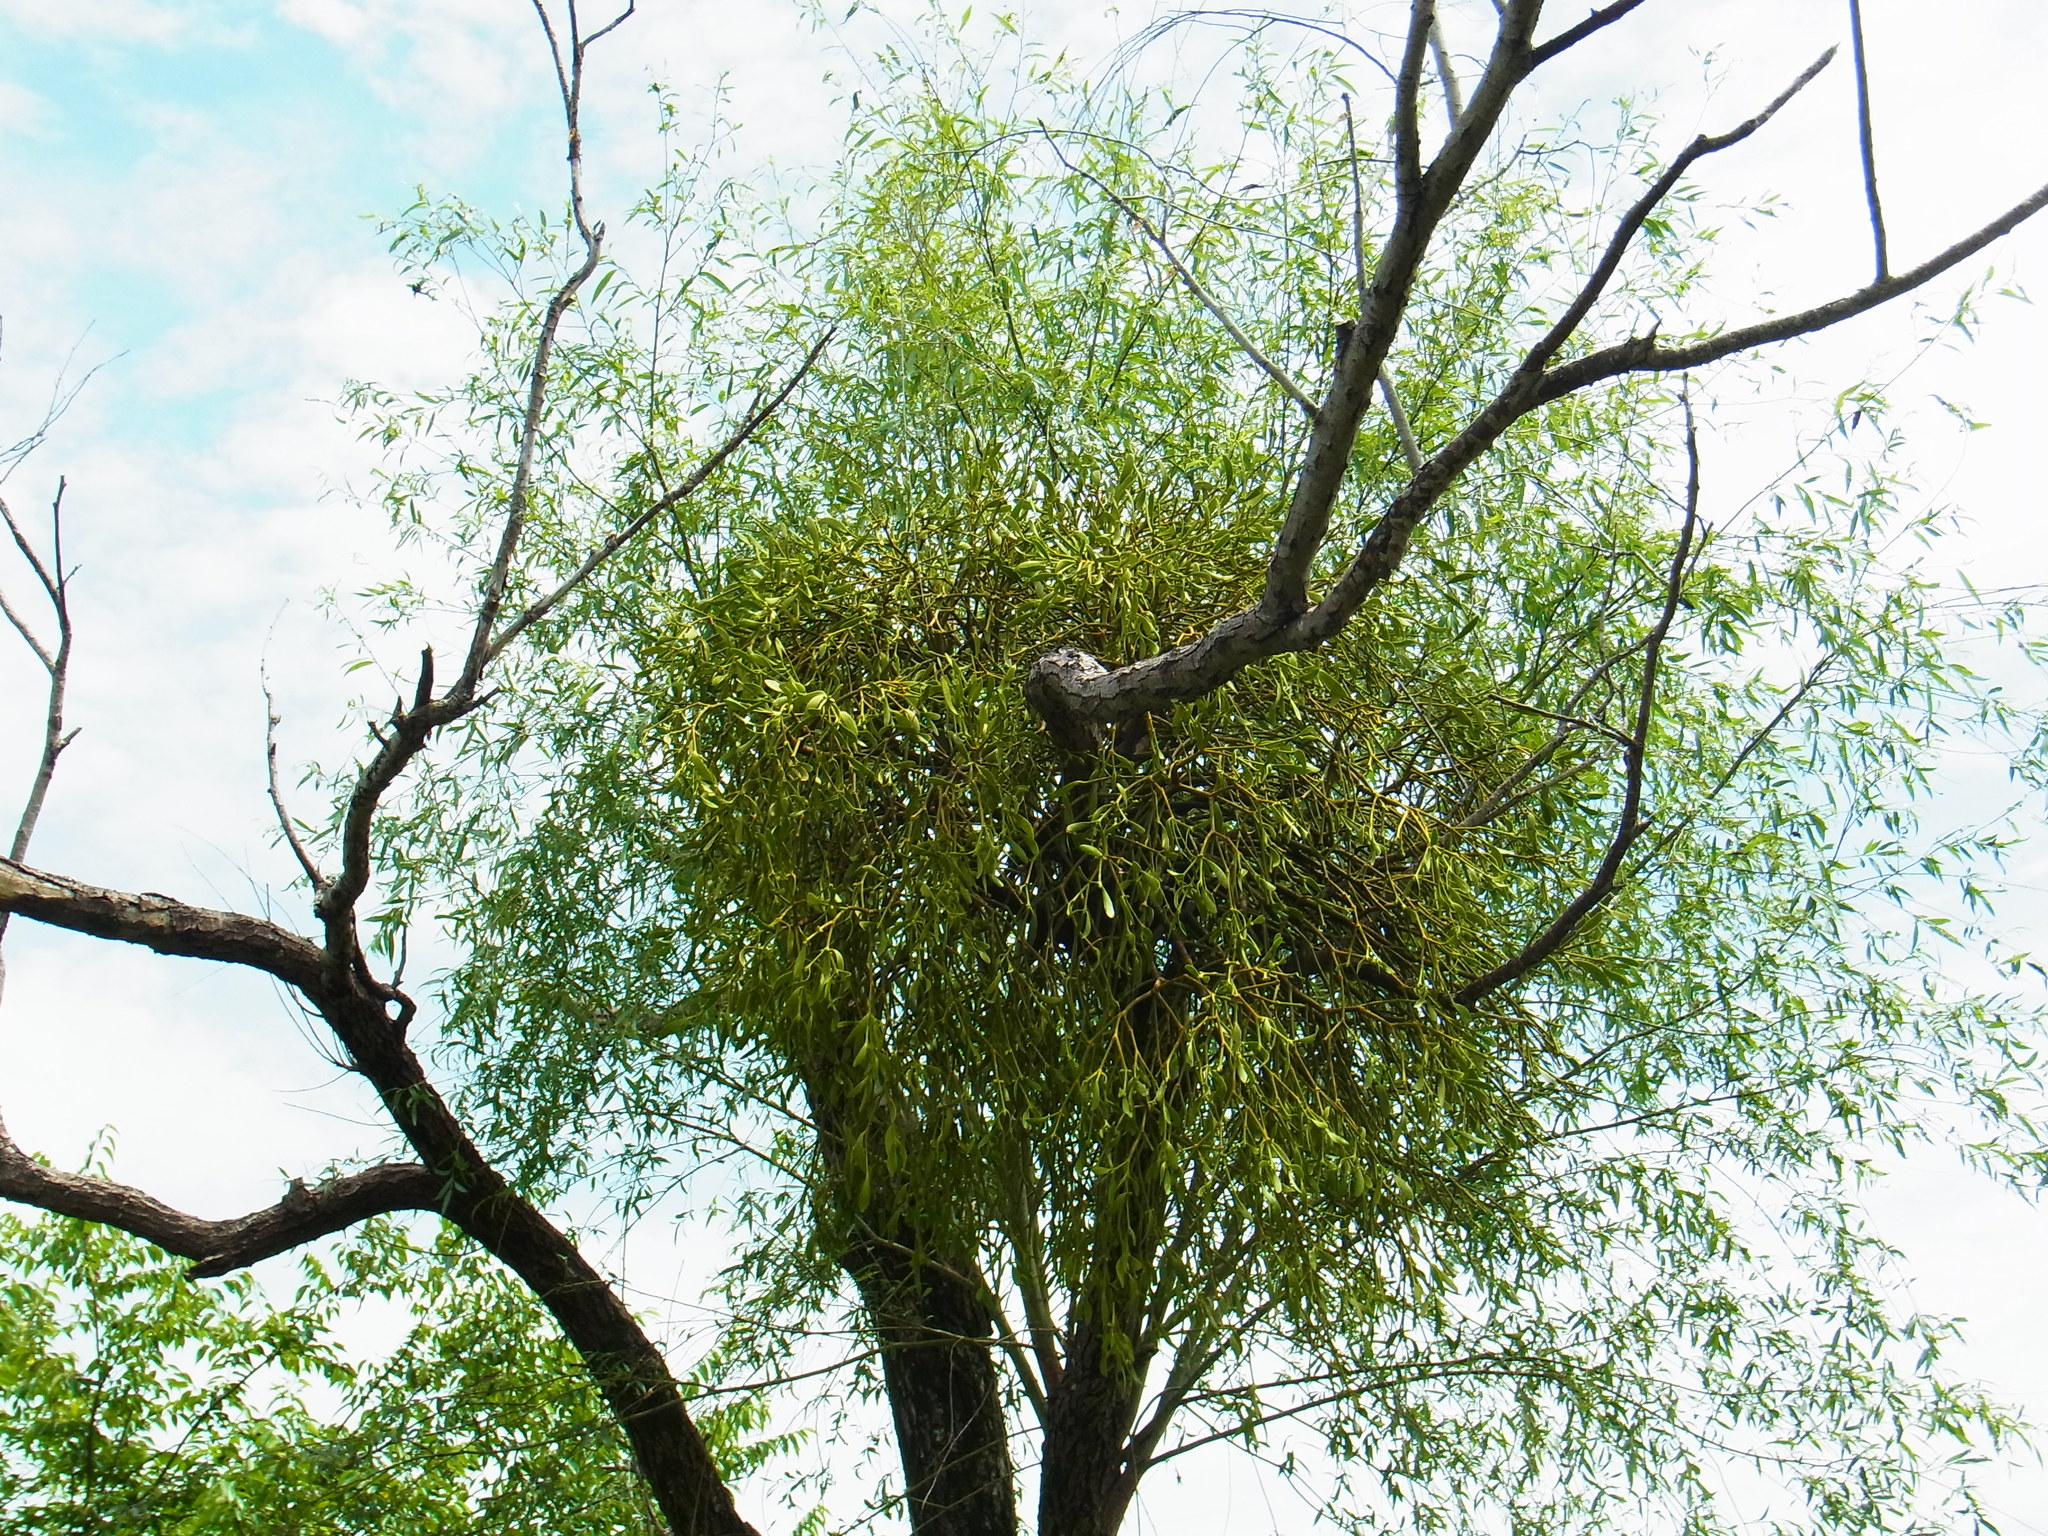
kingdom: Plantae
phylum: Tracheophyta
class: Magnoliopsida
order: Santalales
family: Viscaceae
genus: Viscum
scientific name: Viscum coloratum
